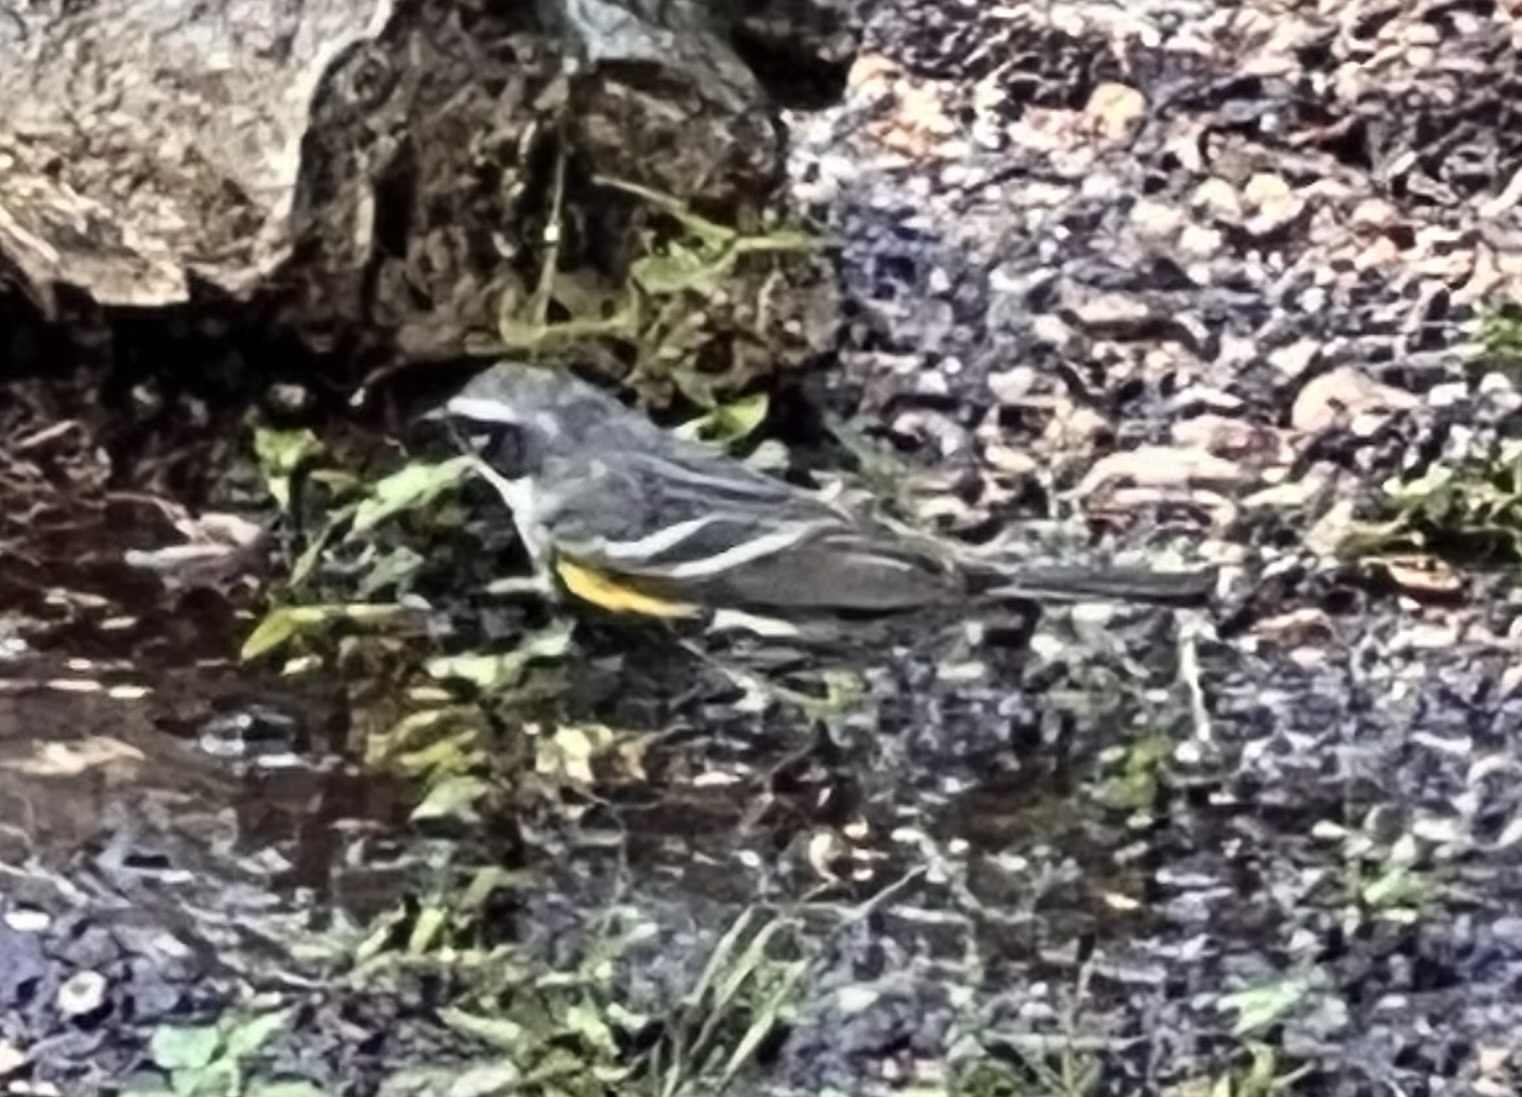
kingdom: Animalia
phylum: Chordata
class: Aves
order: Passeriformes
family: Parulidae
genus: Setophaga
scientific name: Setophaga coronata
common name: Myrtle warbler
